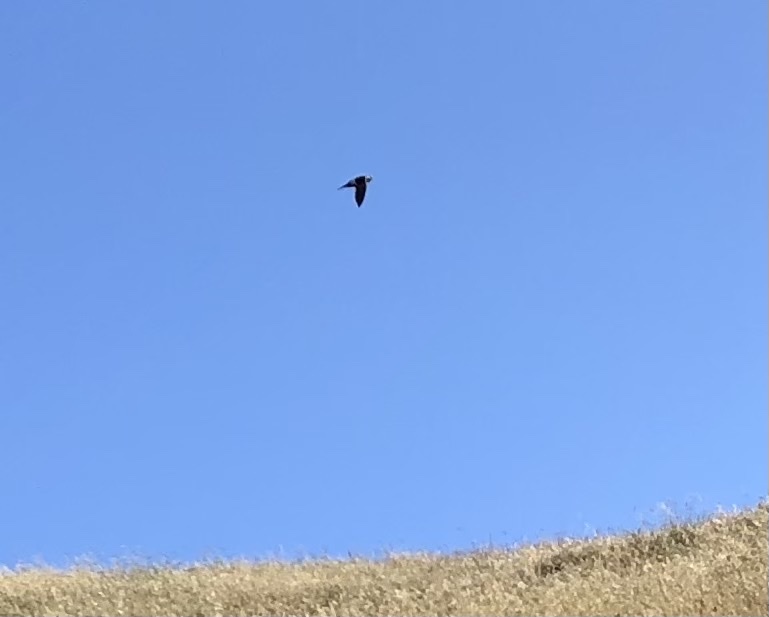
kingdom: Animalia
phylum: Chordata
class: Aves
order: Apodiformes
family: Apodidae
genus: Aeronautes
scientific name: Aeronautes saxatalis
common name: White-throated swift
